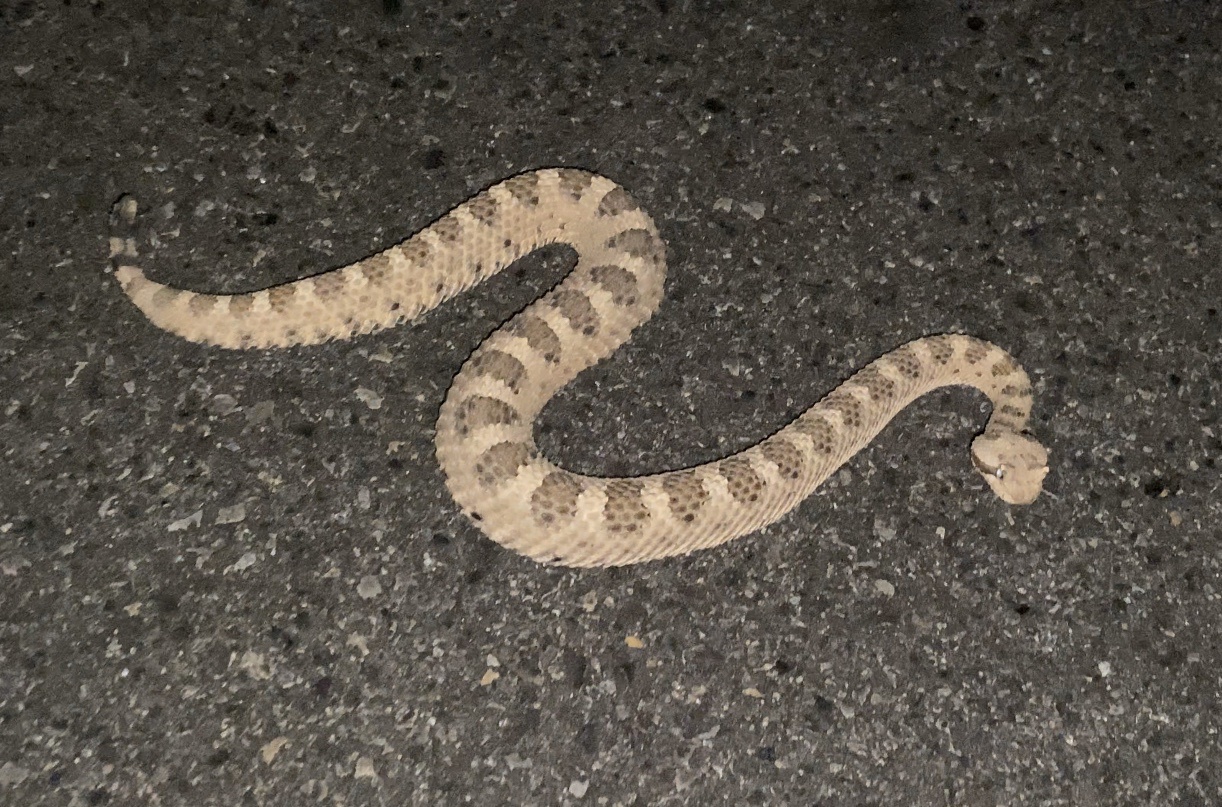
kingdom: Animalia
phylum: Chordata
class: Squamata
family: Viperidae
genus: Crotalus
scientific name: Crotalus cerastes
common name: Sidewinder
